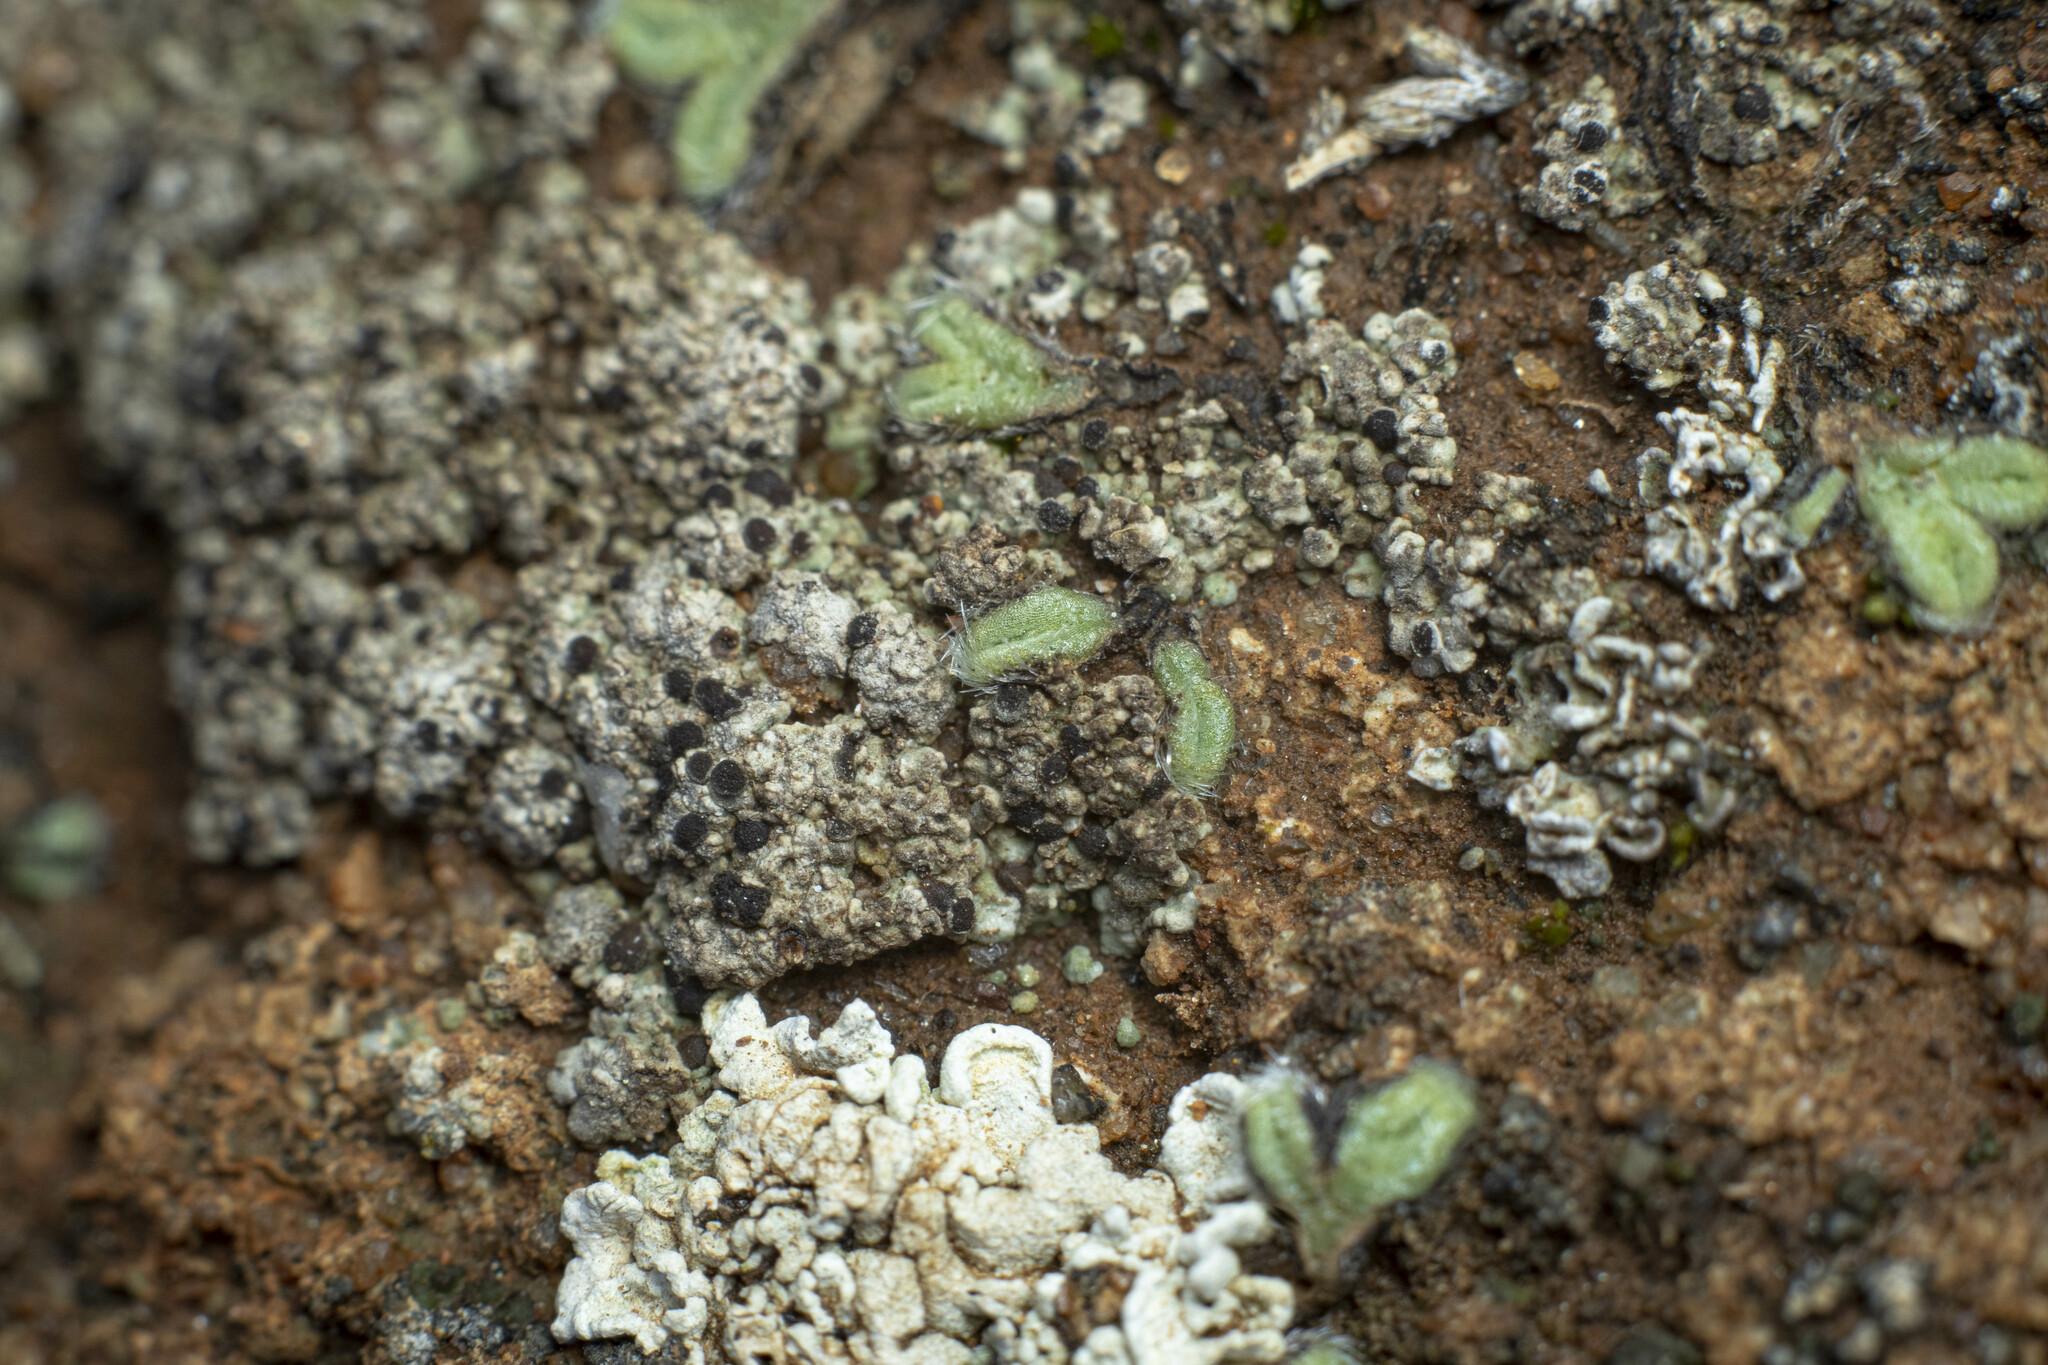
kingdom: Plantae
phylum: Marchantiophyta
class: Marchantiopsida
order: Marchantiales
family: Ricciaceae
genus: Riccia
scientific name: Riccia trichocarpa
